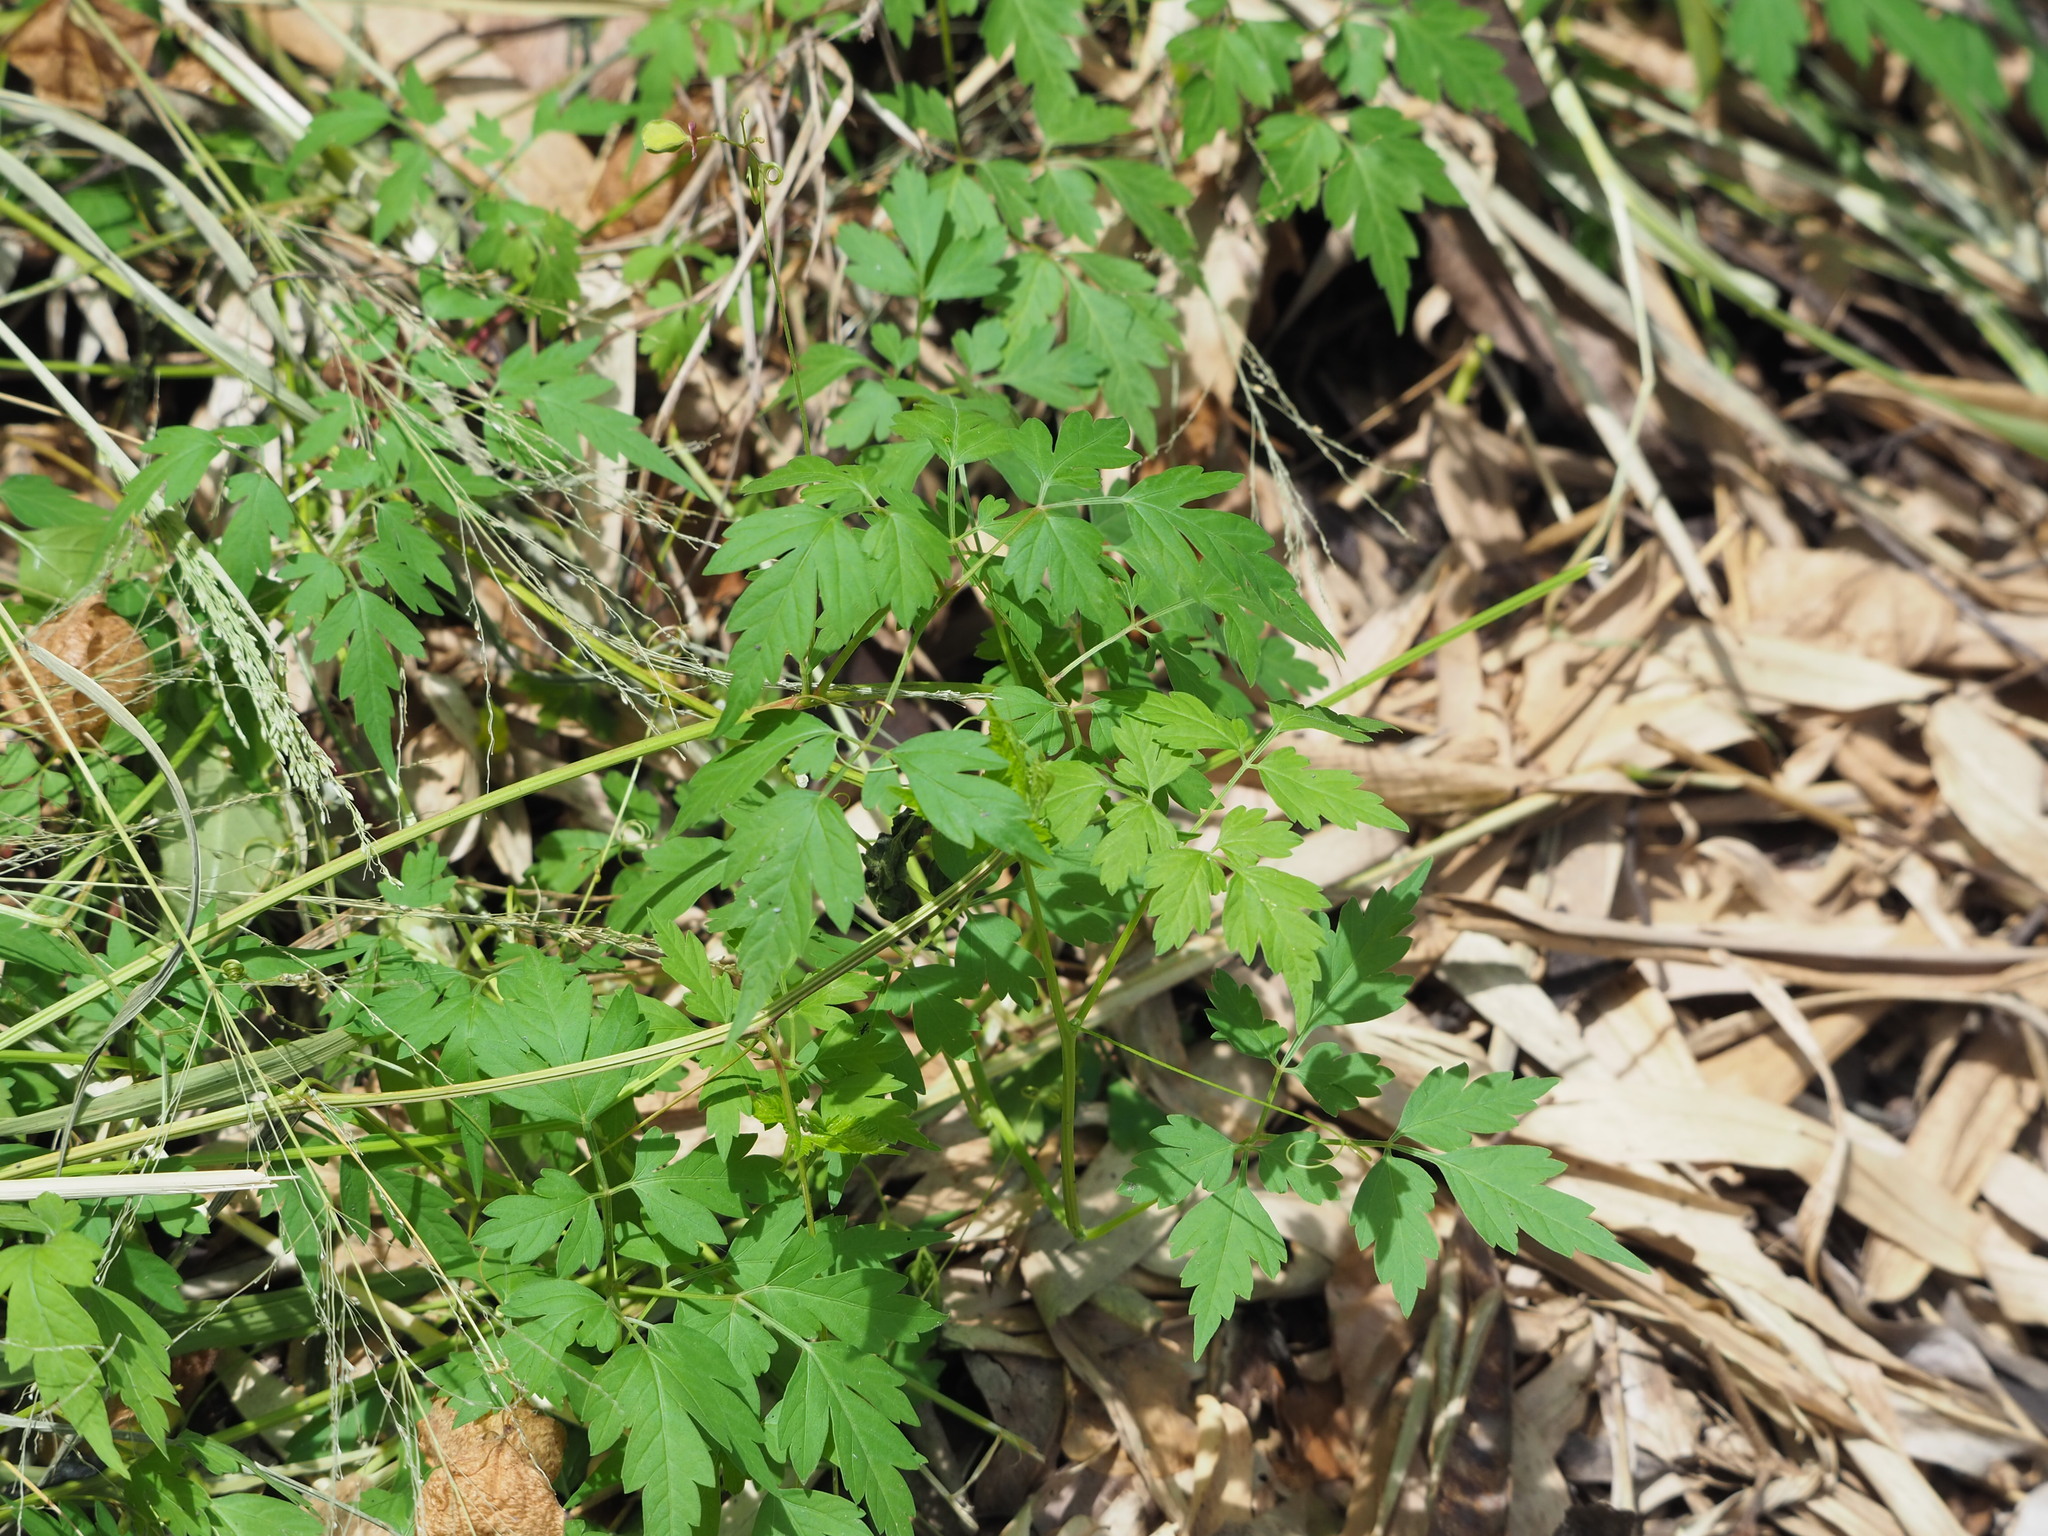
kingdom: Plantae
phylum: Tracheophyta
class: Magnoliopsida
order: Sapindales
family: Sapindaceae
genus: Cardiospermum
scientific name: Cardiospermum halicacabum
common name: Balloon vine
